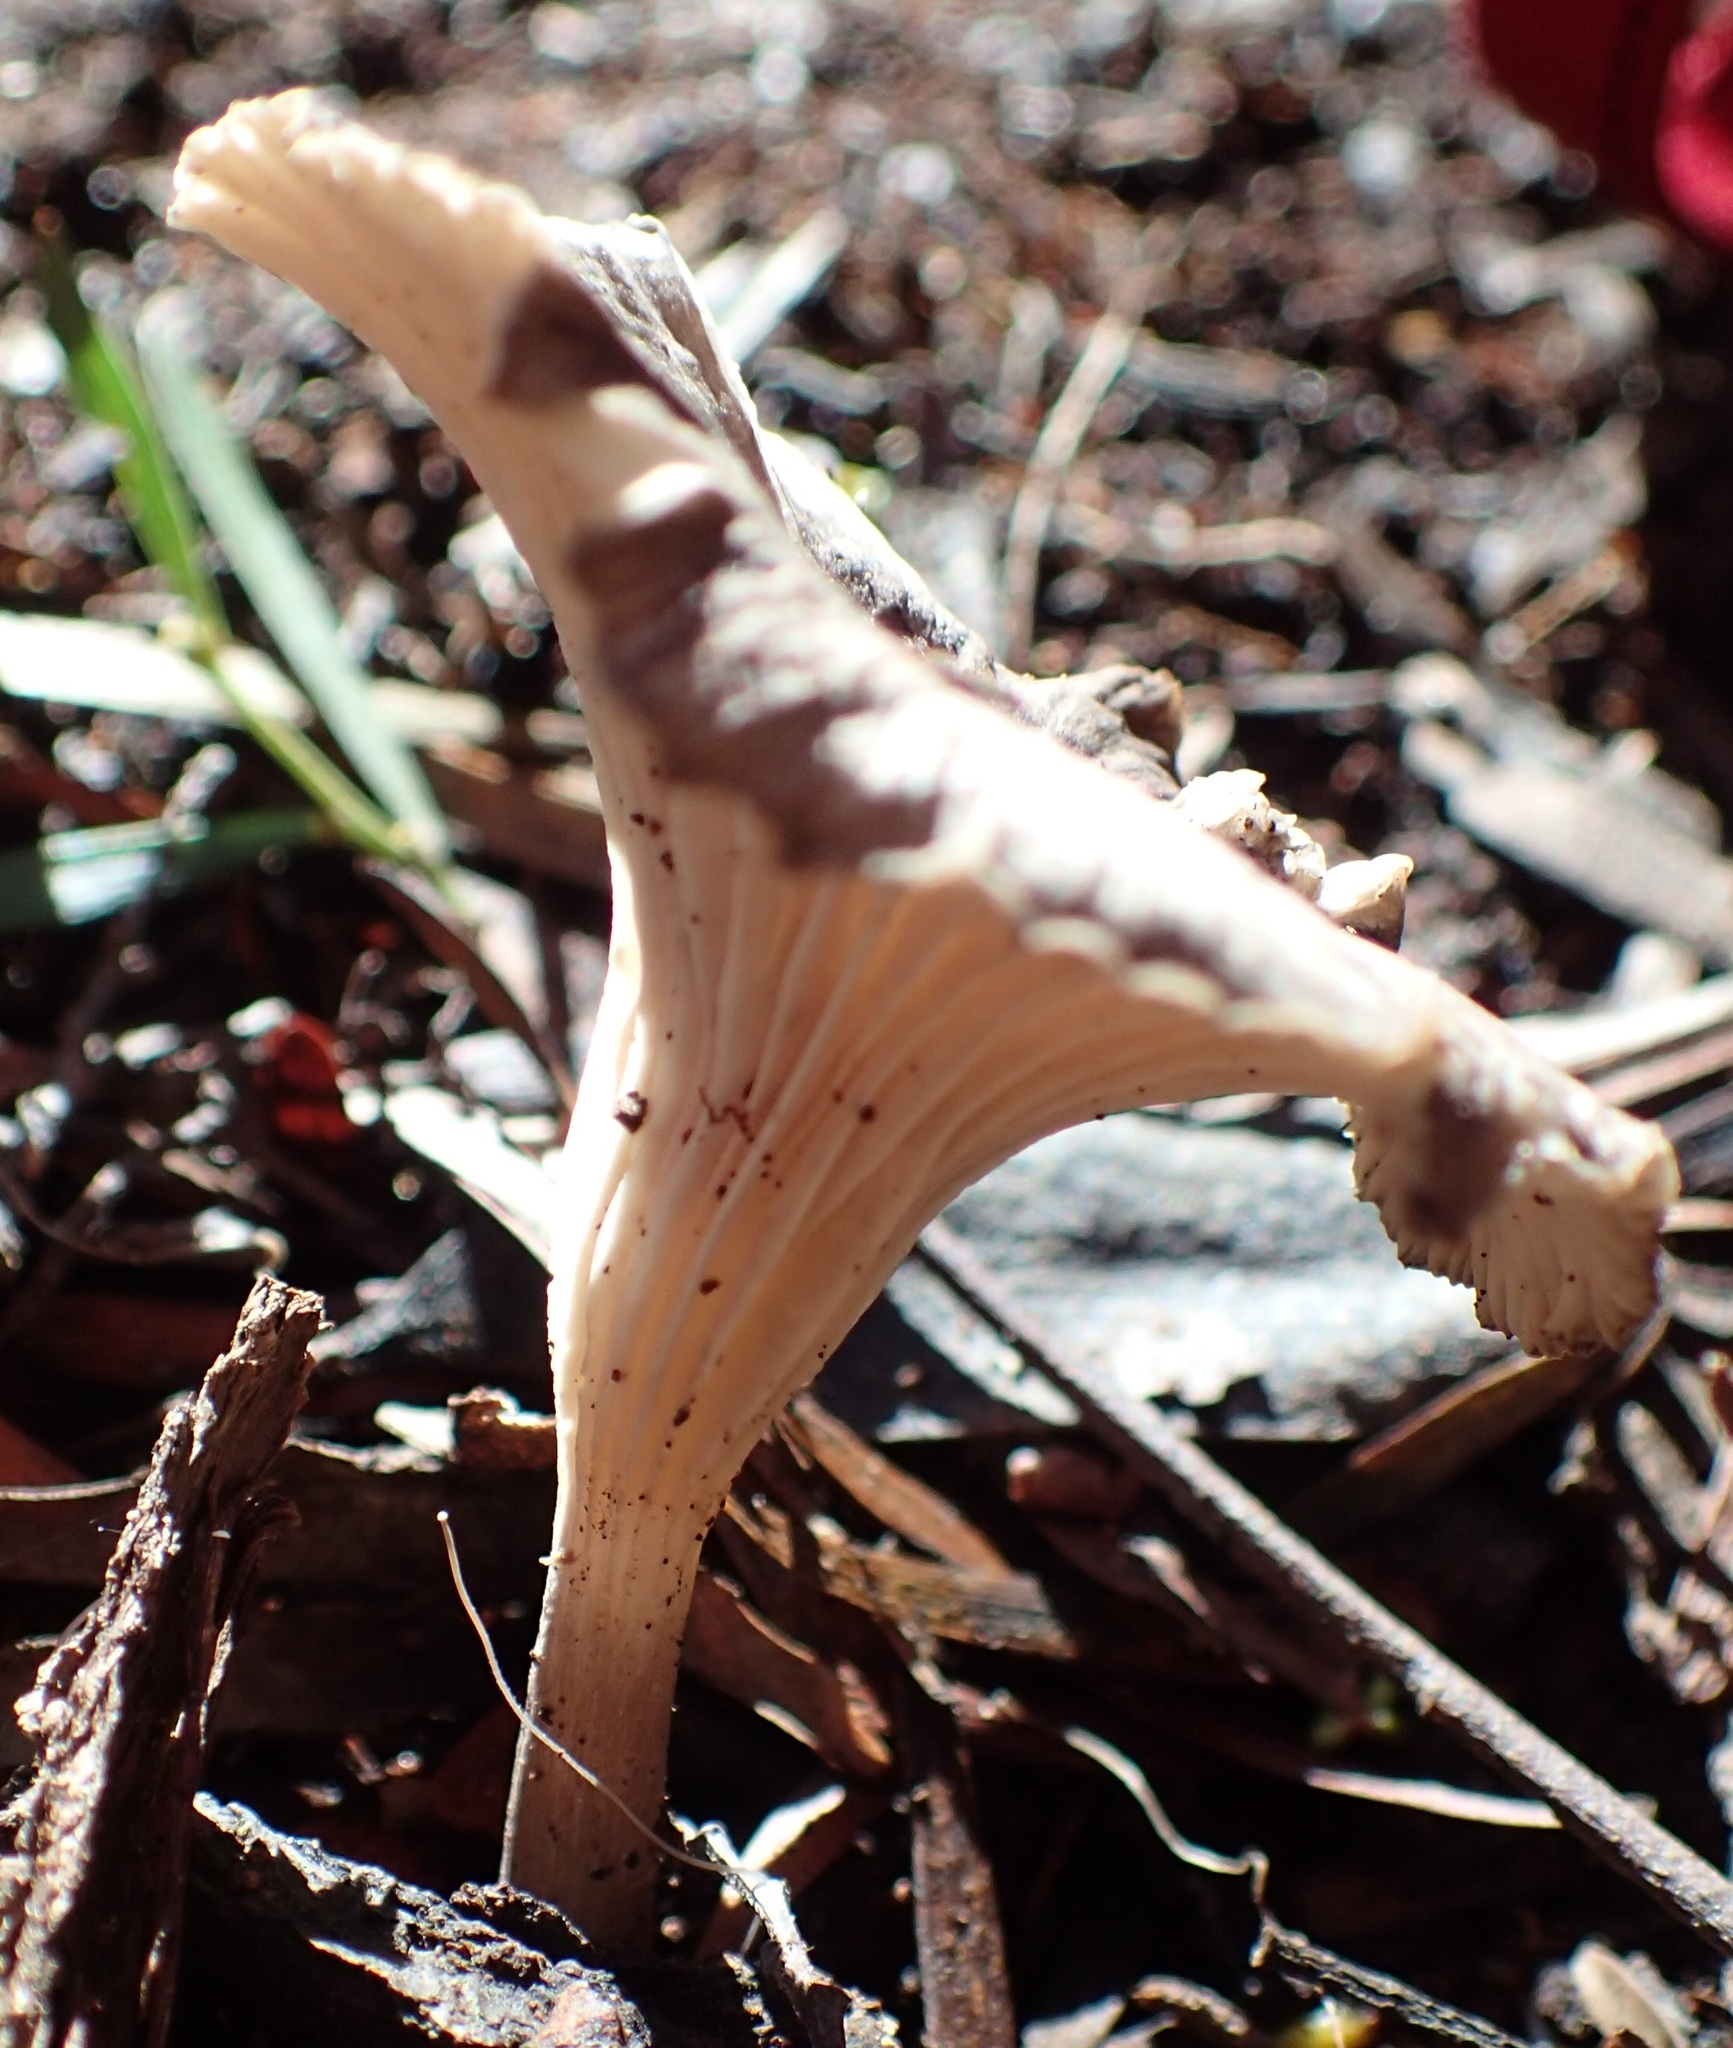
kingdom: Fungi
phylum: Basidiomycota
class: Agaricomycetes
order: Agaricales
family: Marasmiaceae
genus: Trogia
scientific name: Trogia straminea
